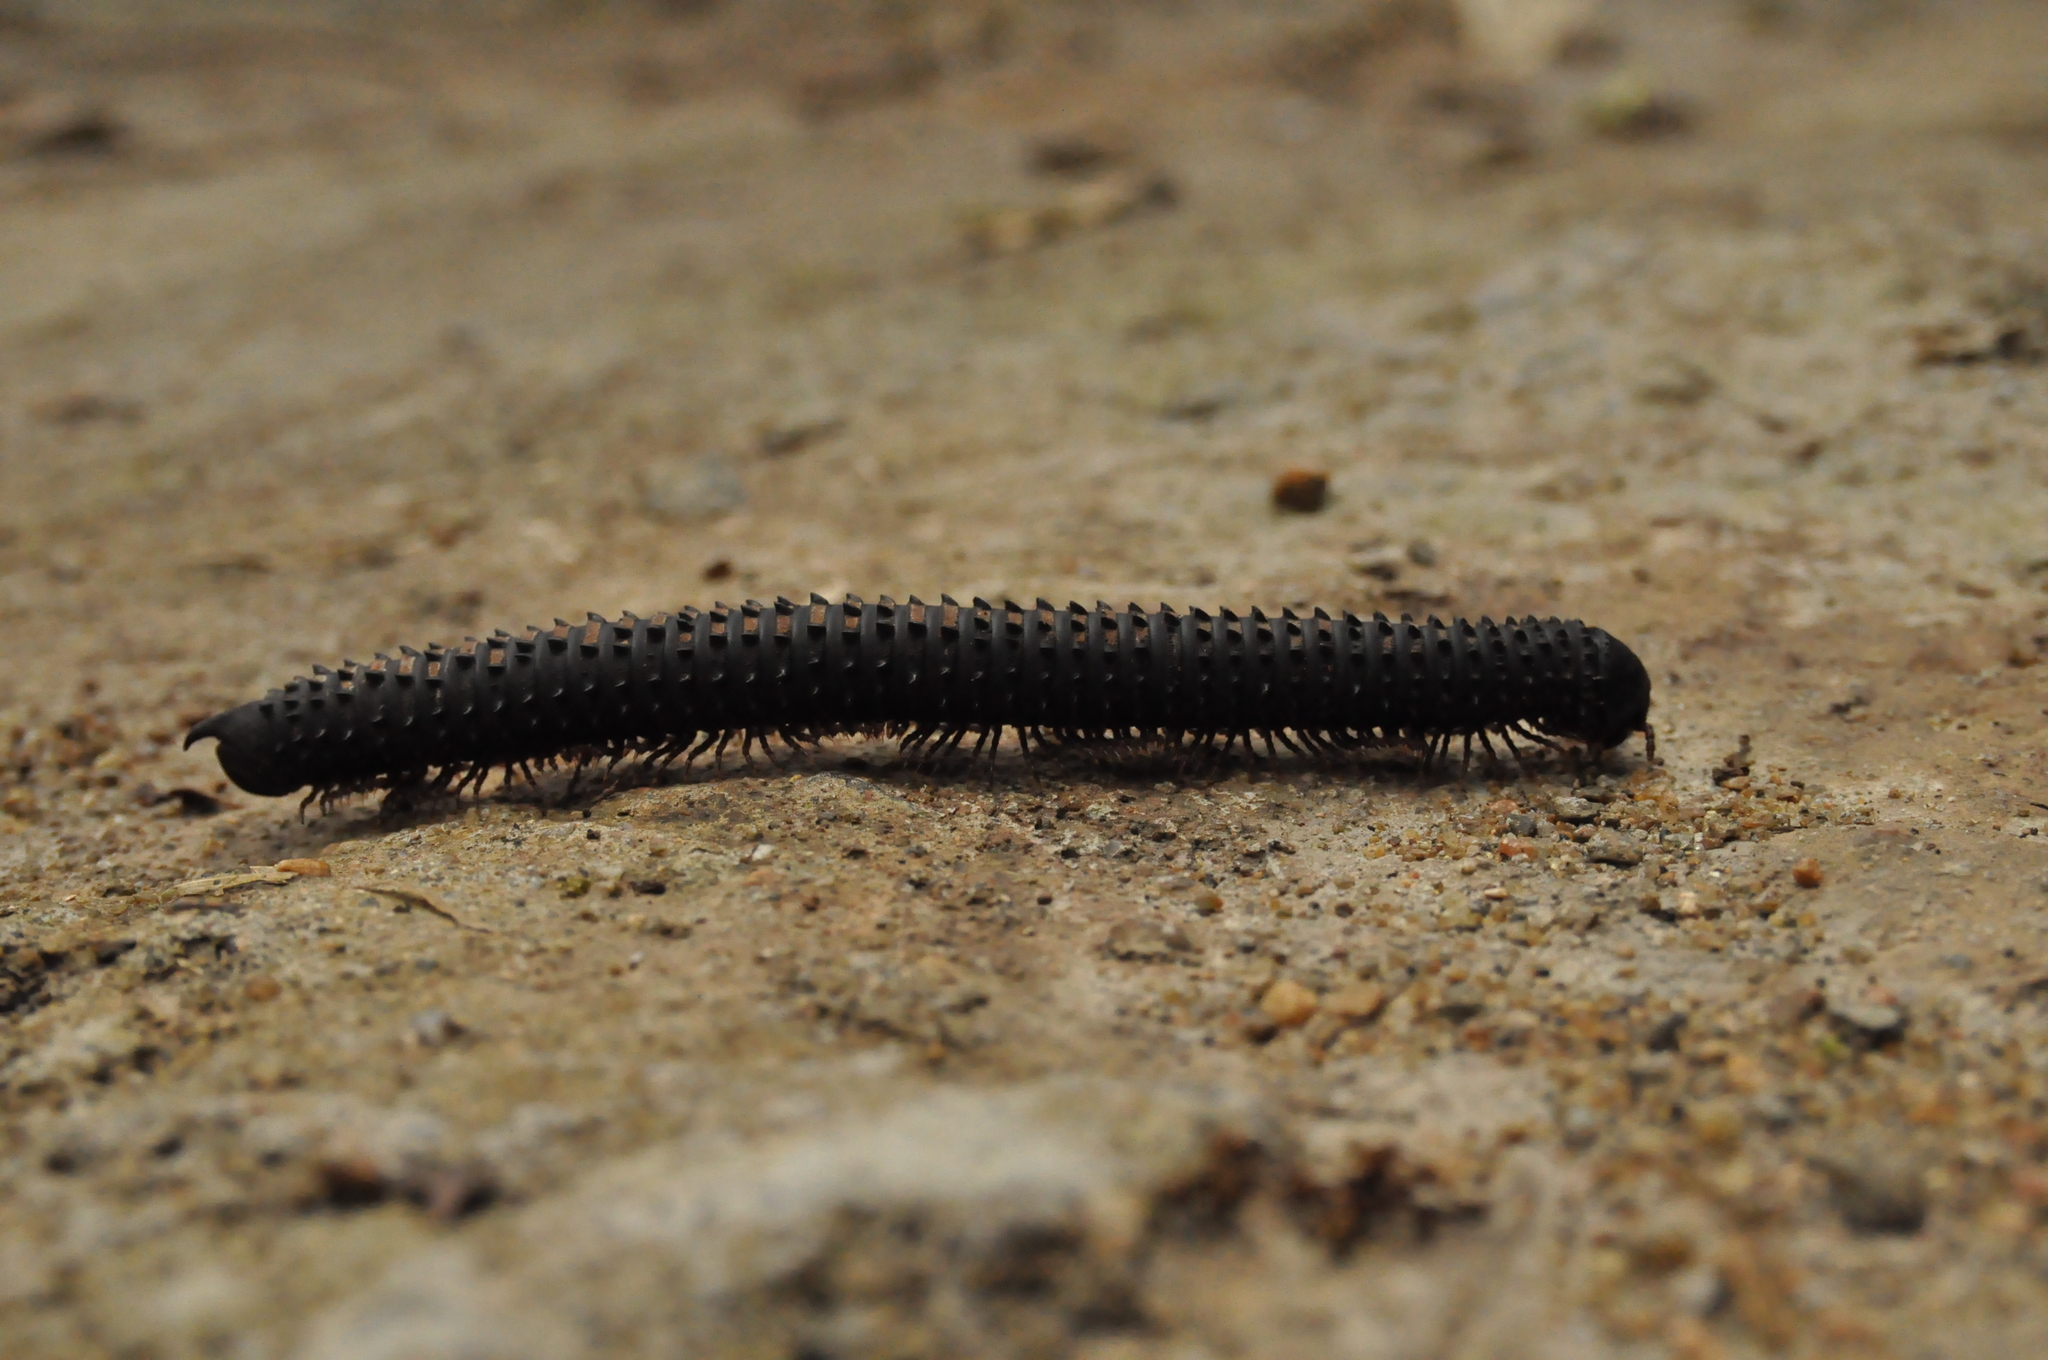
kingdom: Animalia
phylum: Arthropoda
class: Diplopoda
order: Spirobolida
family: Pachybolidae
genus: Eucentrobolus
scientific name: Eucentrobolus tamulus
